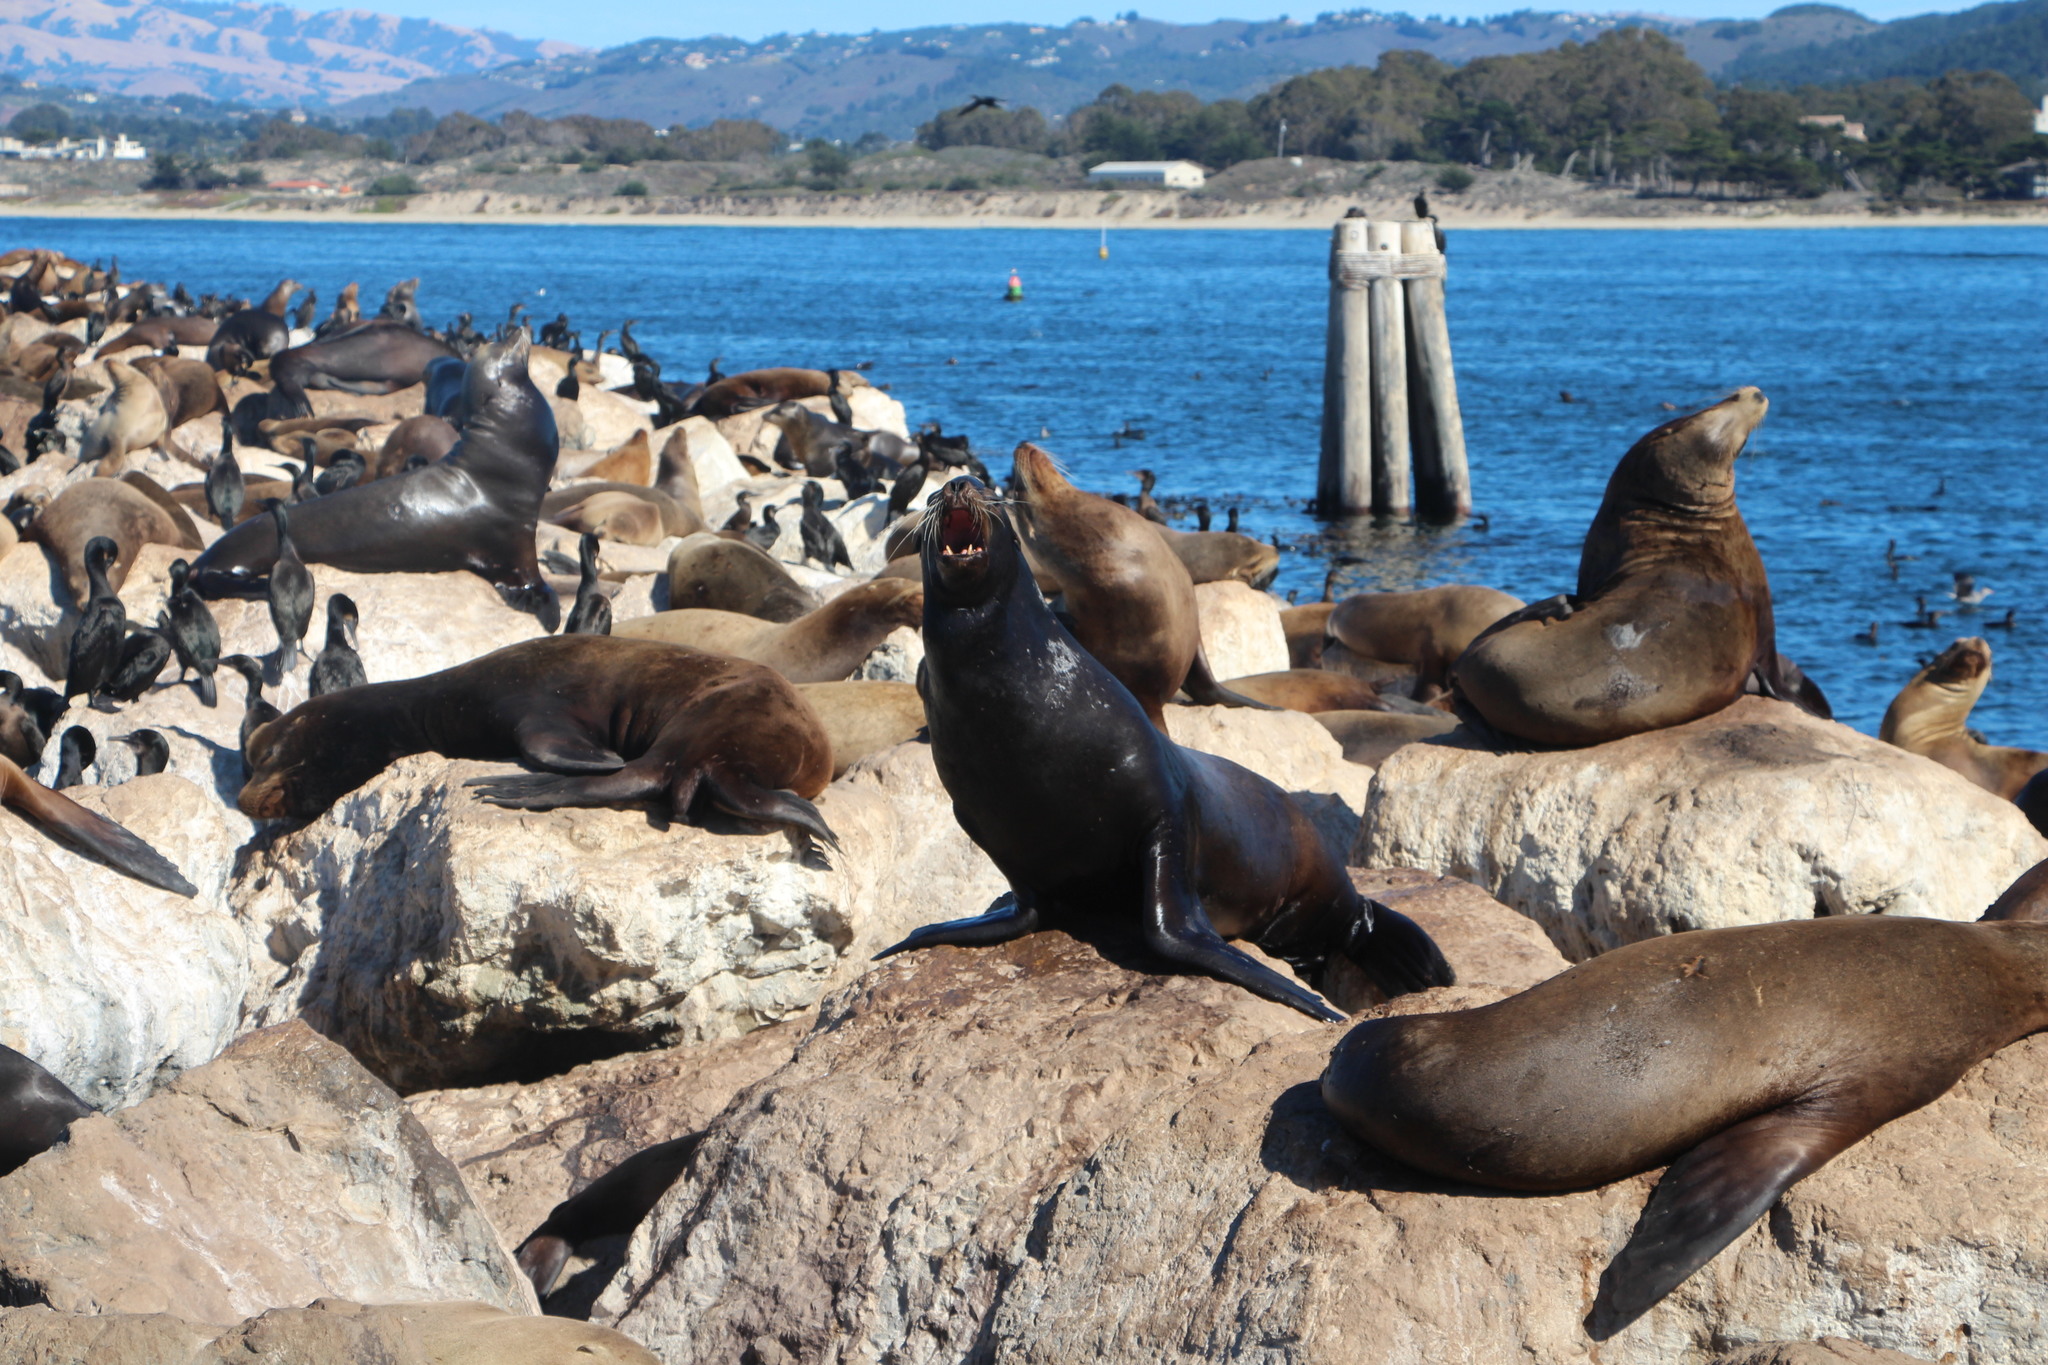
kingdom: Animalia
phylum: Chordata
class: Mammalia
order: Carnivora
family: Otariidae
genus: Zalophus
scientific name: Zalophus californianus
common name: California sea lion
